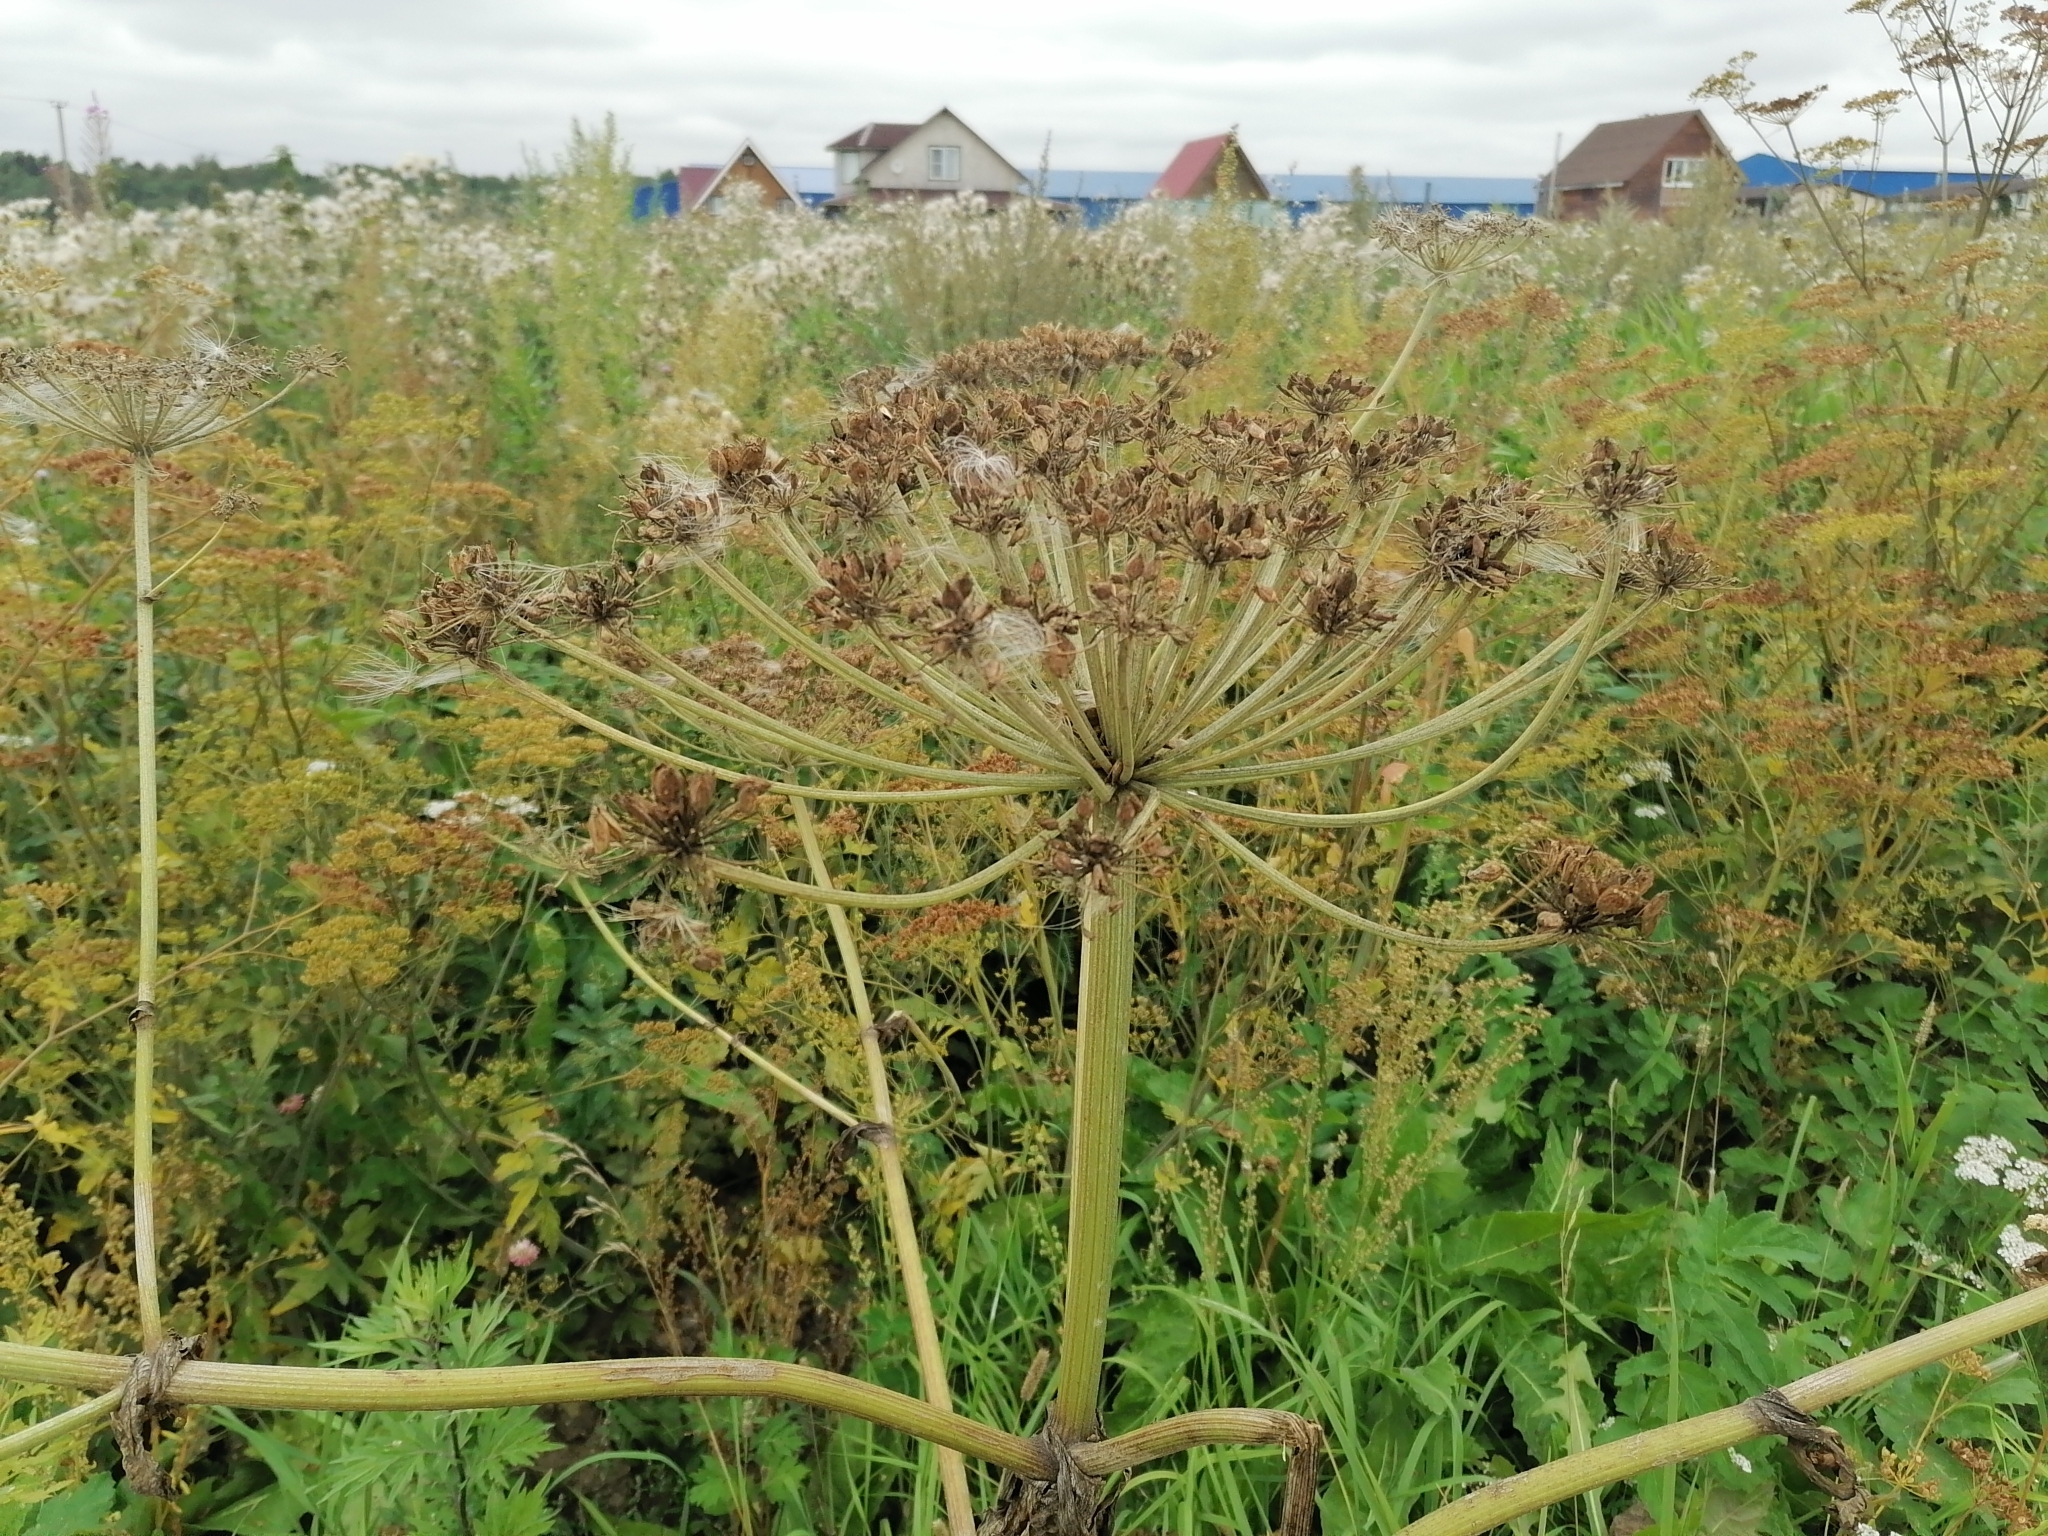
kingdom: Plantae
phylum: Tracheophyta
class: Magnoliopsida
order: Apiales
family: Apiaceae
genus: Heracleum
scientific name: Heracleum sosnowskyi
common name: Sosnowsky's hogweed
